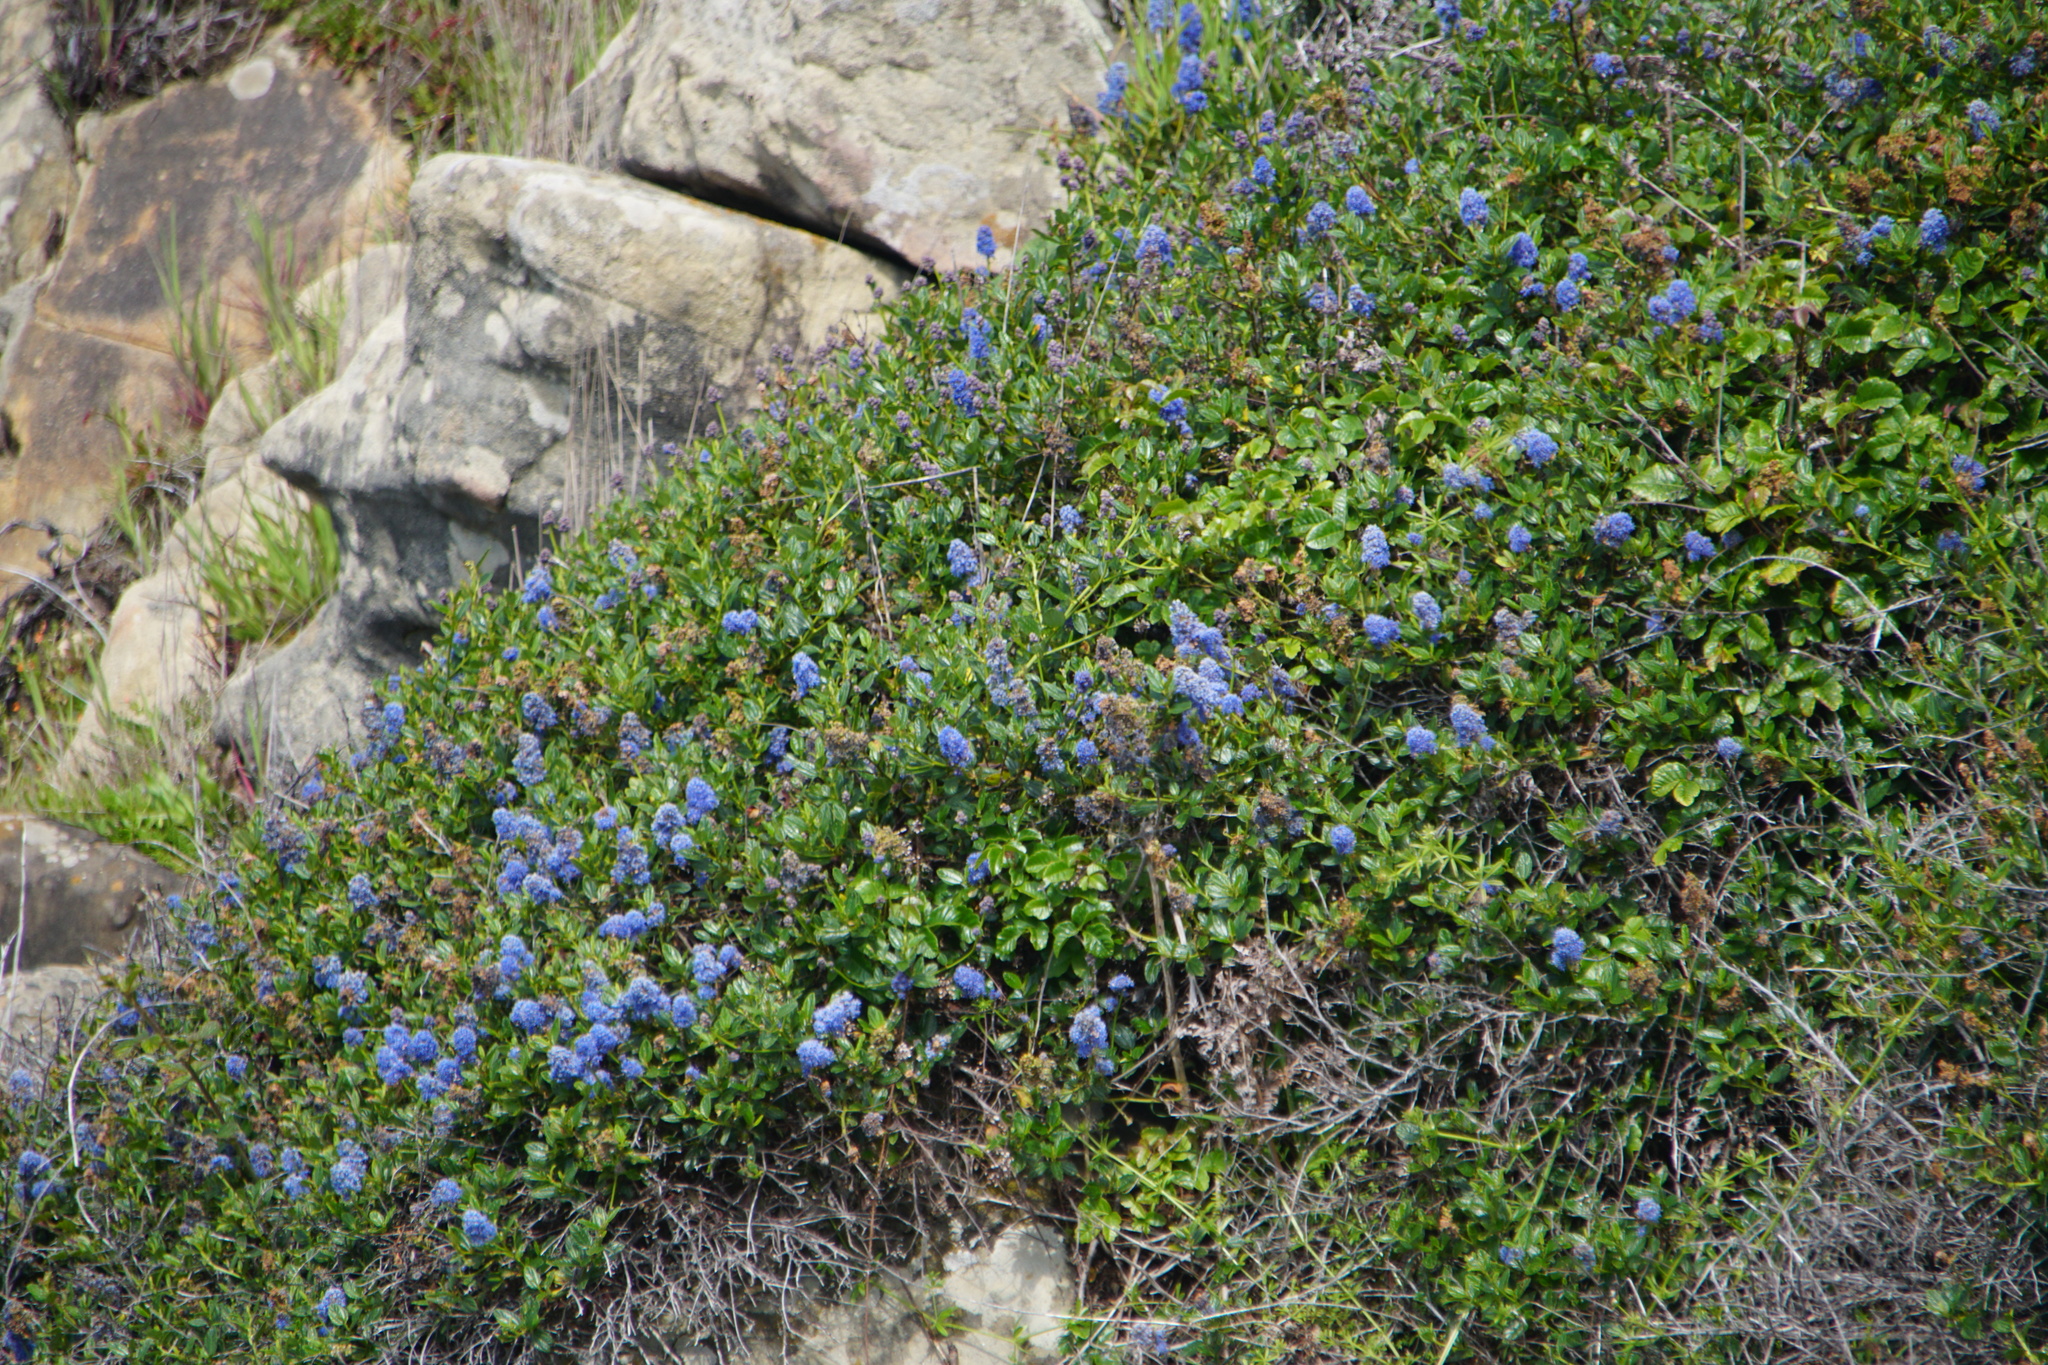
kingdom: Plantae
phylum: Tracheophyta
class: Magnoliopsida
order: Rosales
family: Rhamnaceae
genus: Ceanothus
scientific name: Ceanothus thyrsiflorus
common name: California-lilac
